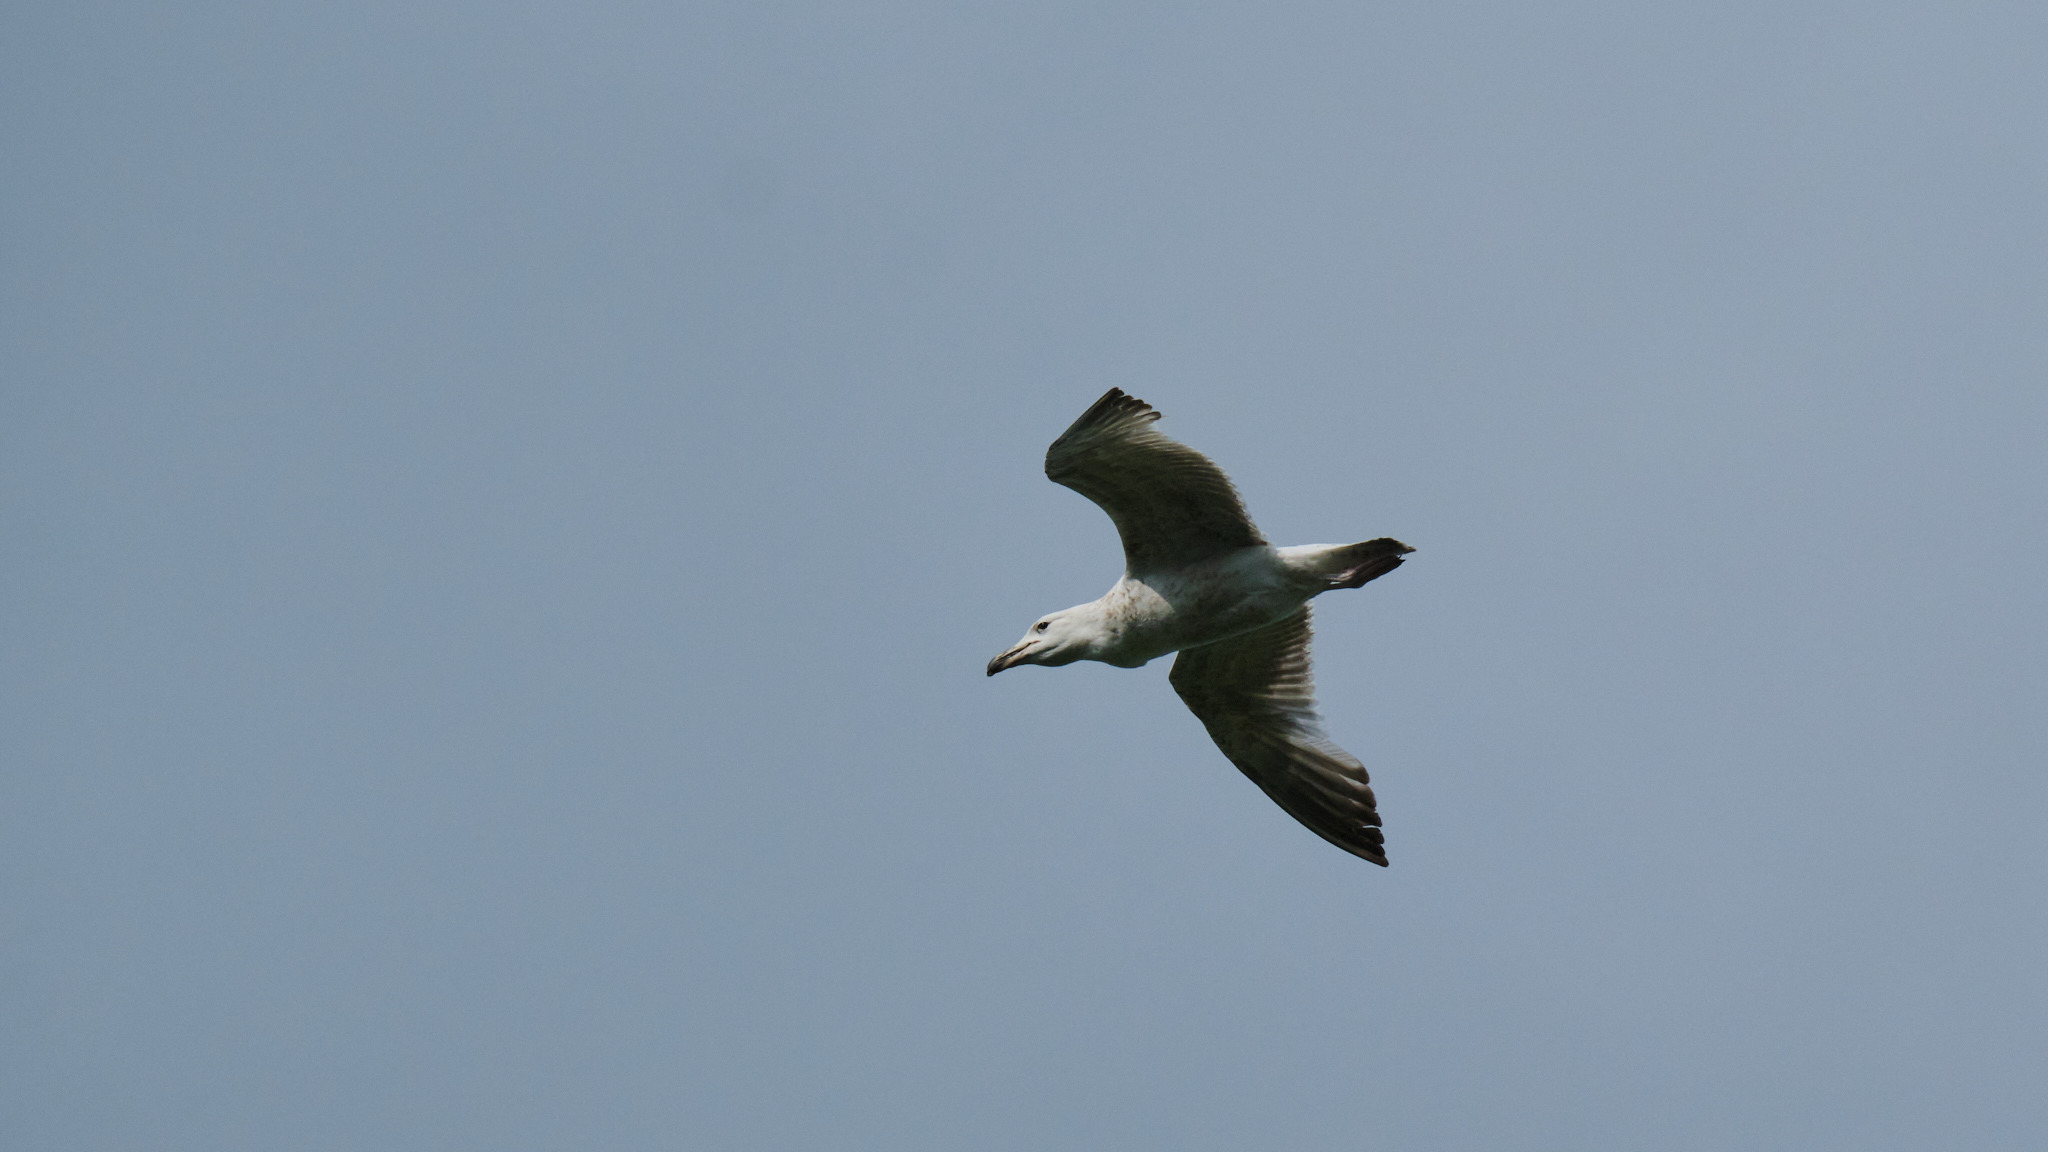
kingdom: Animalia
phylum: Chordata
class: Aves
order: Charadriiformes
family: Laridae
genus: Larus
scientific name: Larus argentatus
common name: Herring gull
